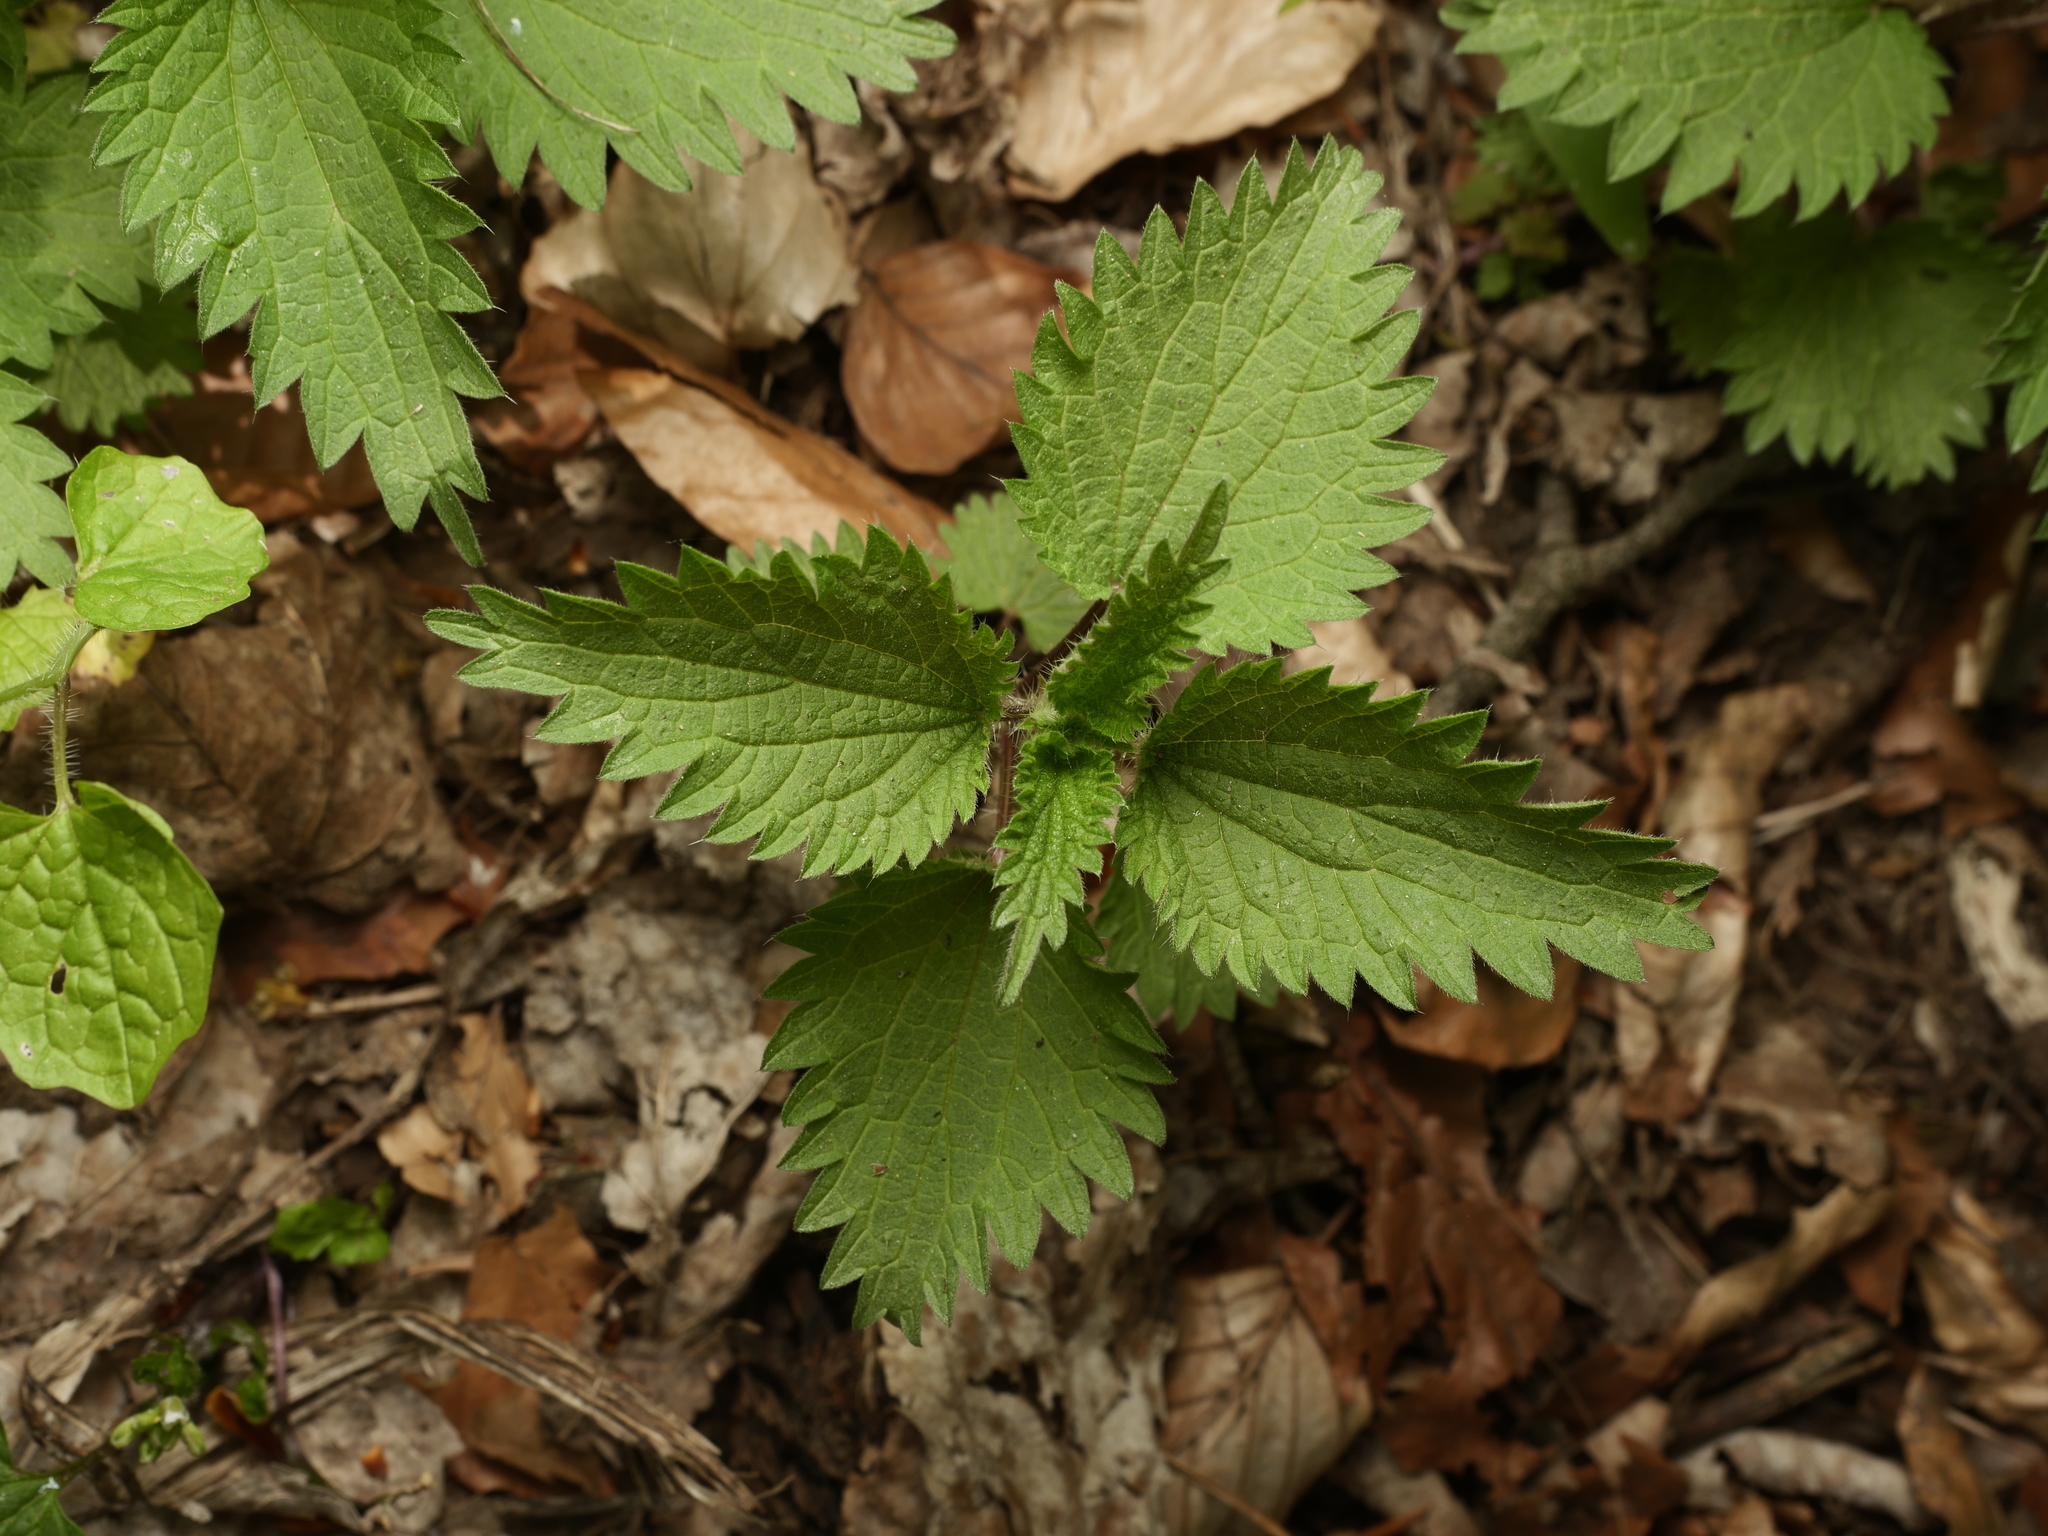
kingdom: Plantae
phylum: Tracheophyta
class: Magnoliopsida
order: Rosales
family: Urticaceae
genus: Urtica
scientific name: Urtica dioica
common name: Common nettle
